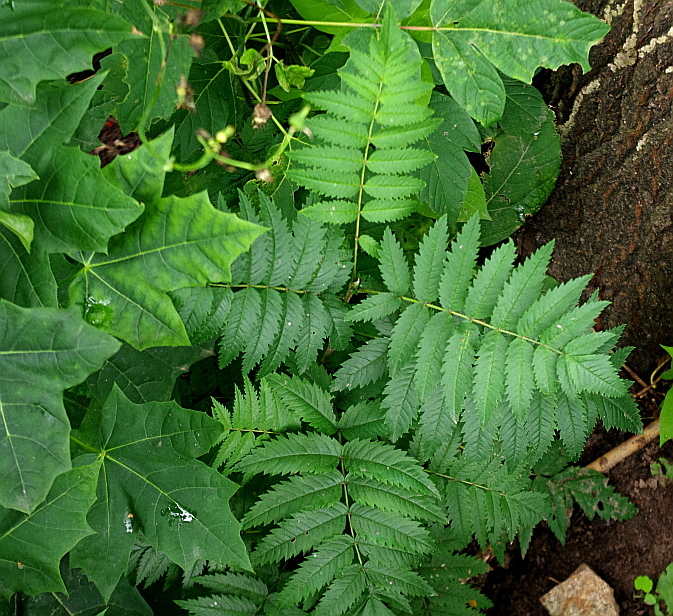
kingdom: Plantae
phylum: Tracheophyta
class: Magnoliopsida
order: Rosales
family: Rosaceae
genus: Sorbus
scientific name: Sorbus aucuparia
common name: Rowan
